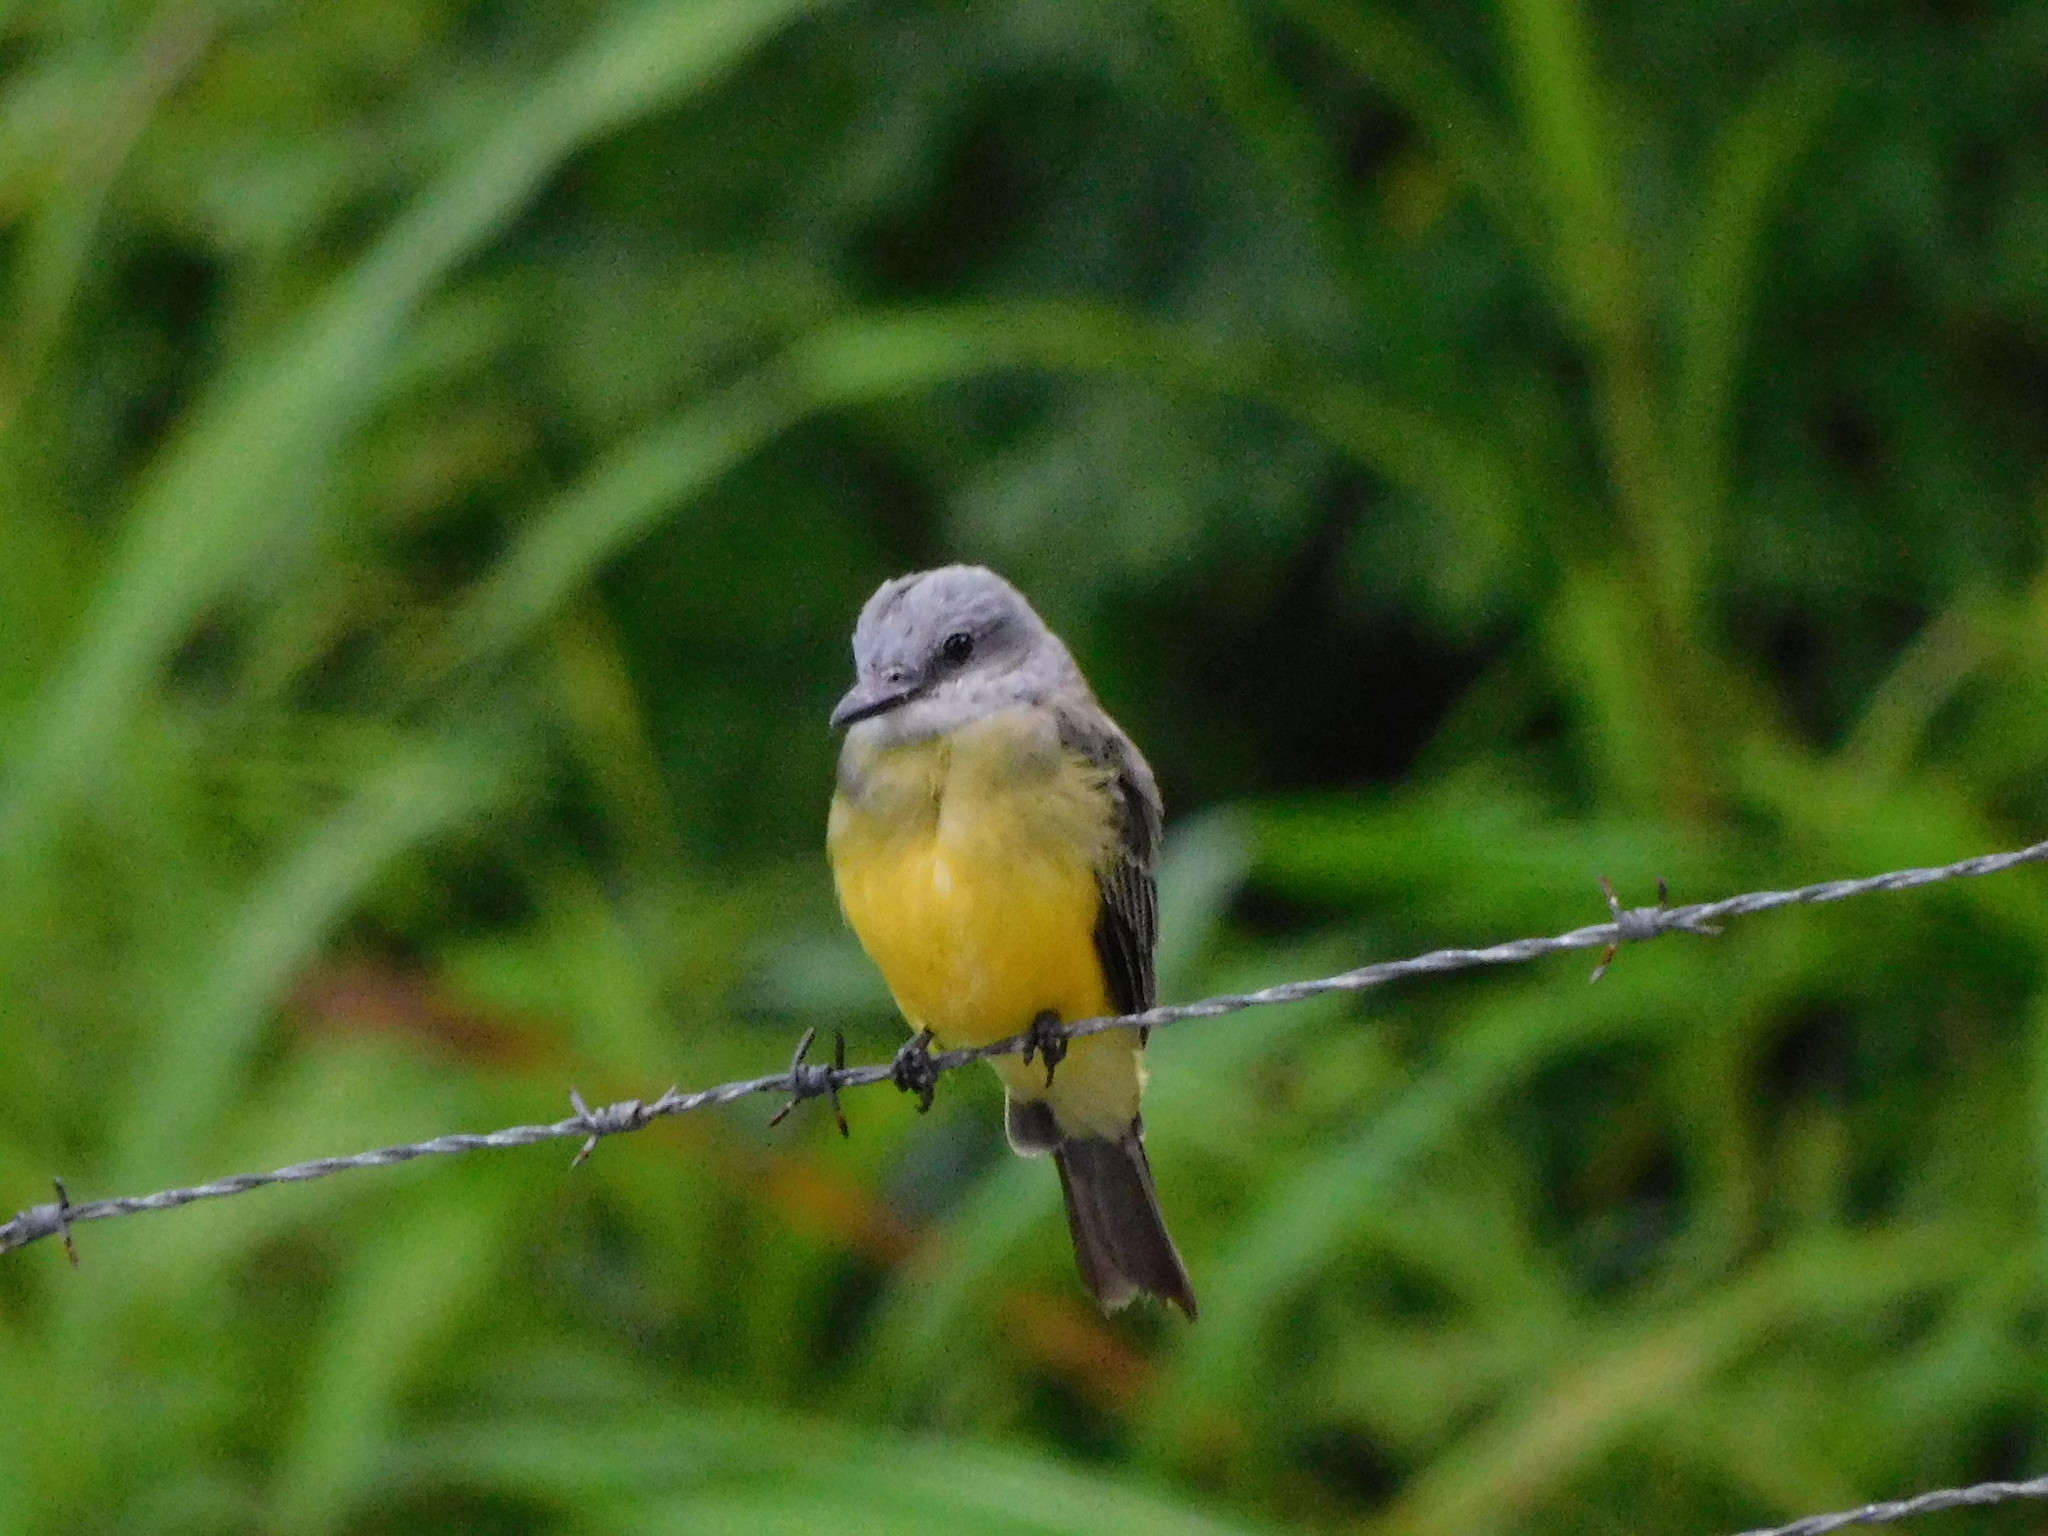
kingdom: Animalia
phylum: Chordata
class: Aves
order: Passeriformes
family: Tyrannidae
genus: Tyrannus
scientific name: Tyrannus melancholicus
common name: Tropical kingbird
